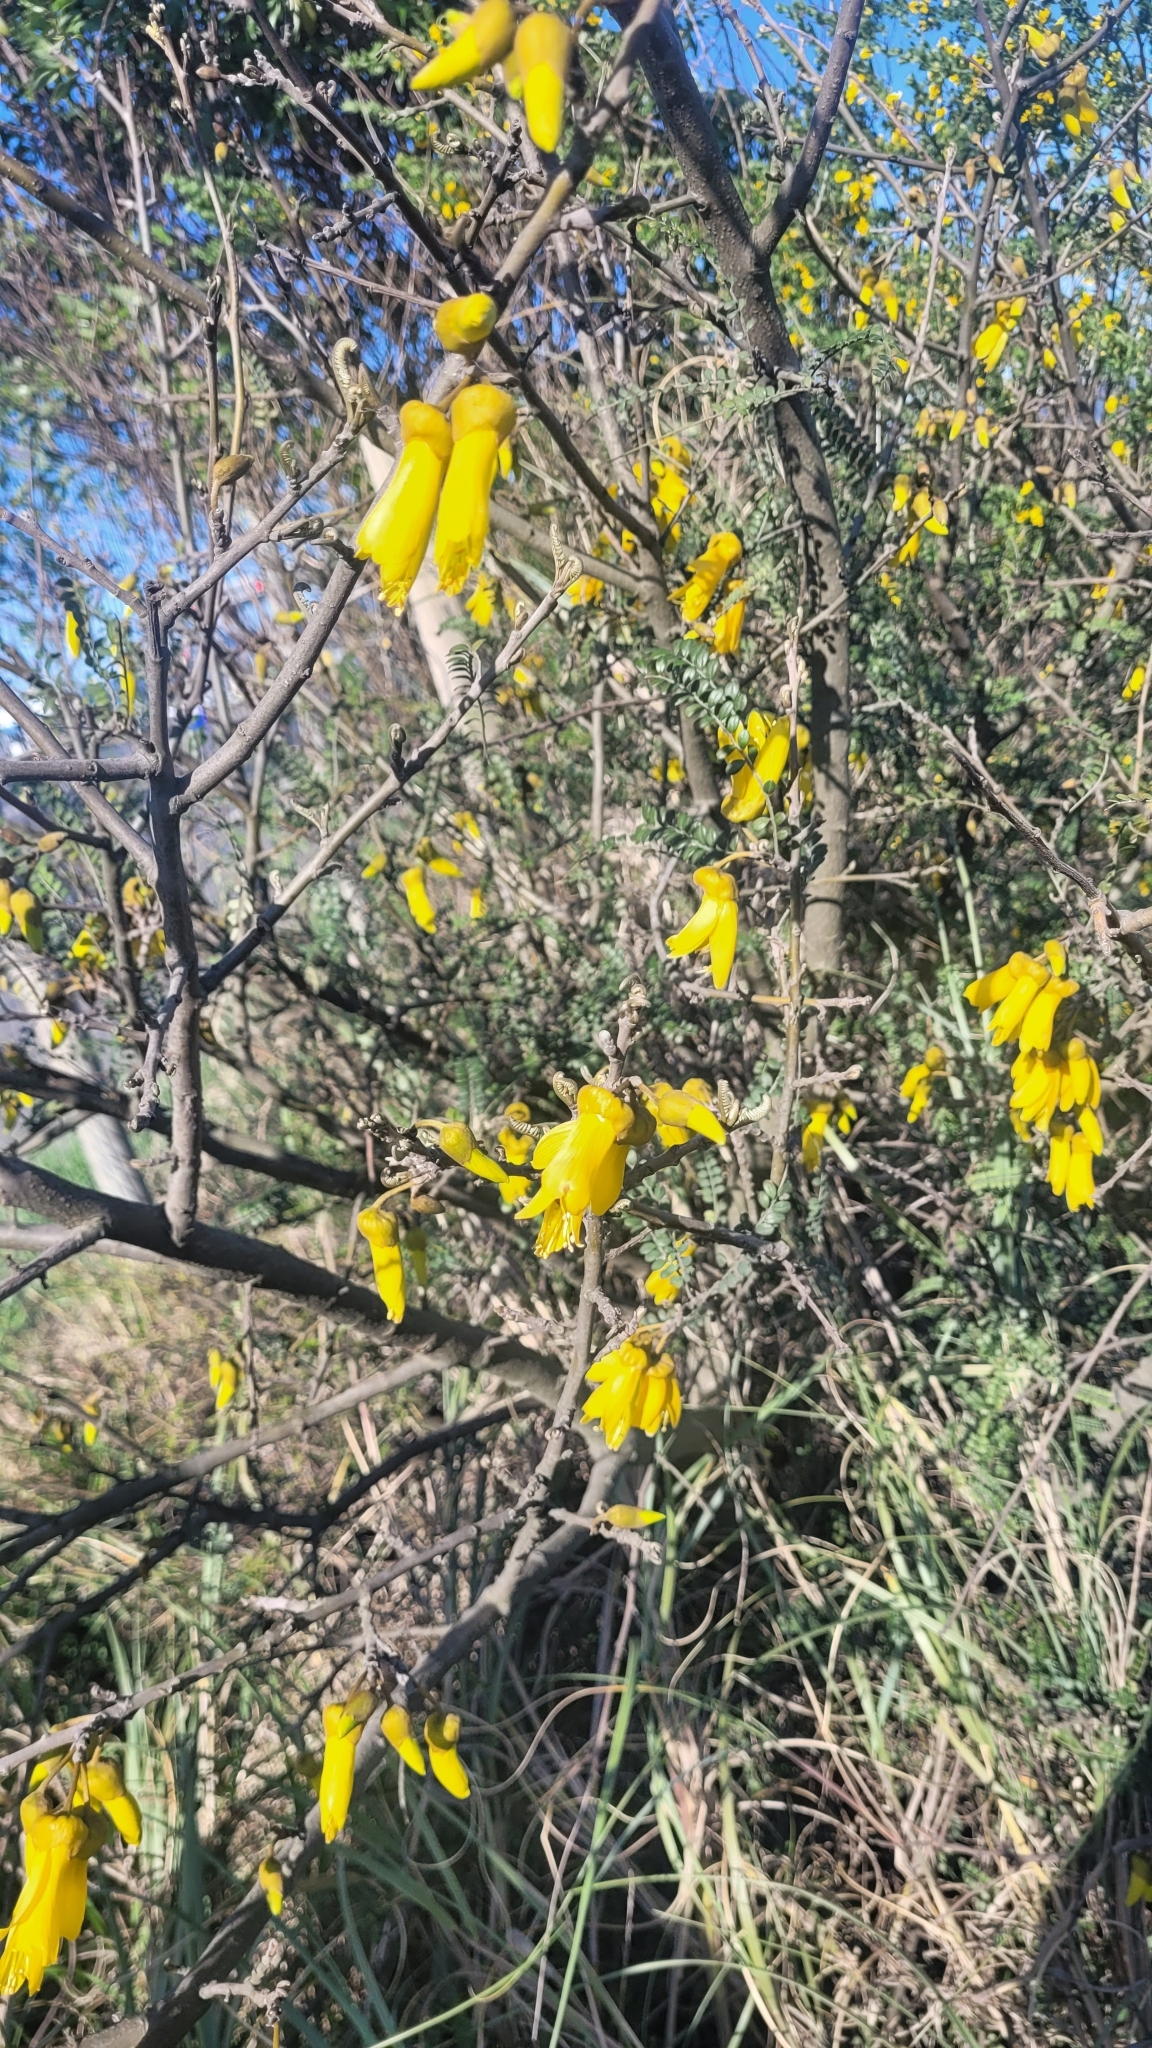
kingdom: Plantae
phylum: Tracheophyta
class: Magnoliopsida
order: Fabales
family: Fabaceae
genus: Sophora
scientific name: Sophora cassioides
